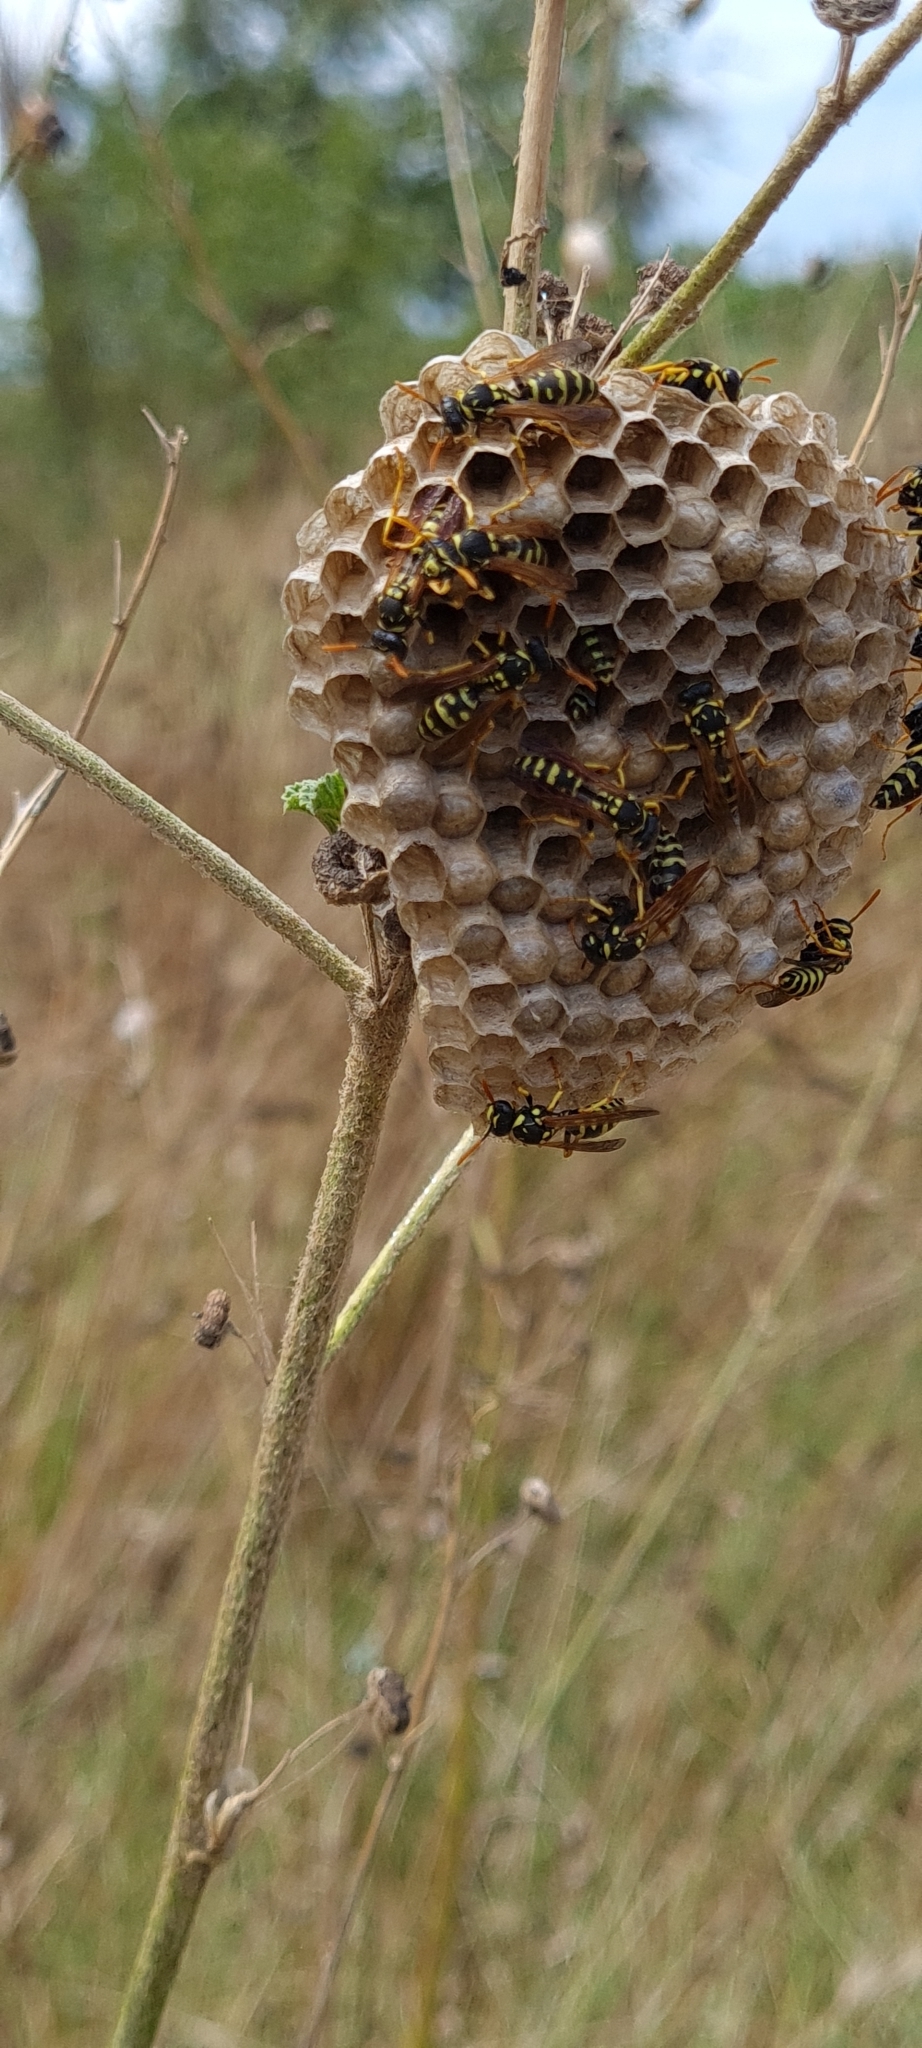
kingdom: Animalia
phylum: Arthropoda
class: Insecta
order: Hymenoptera
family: Eumenidae
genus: Polistes
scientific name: Polistes gallicus
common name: Paper wasp
